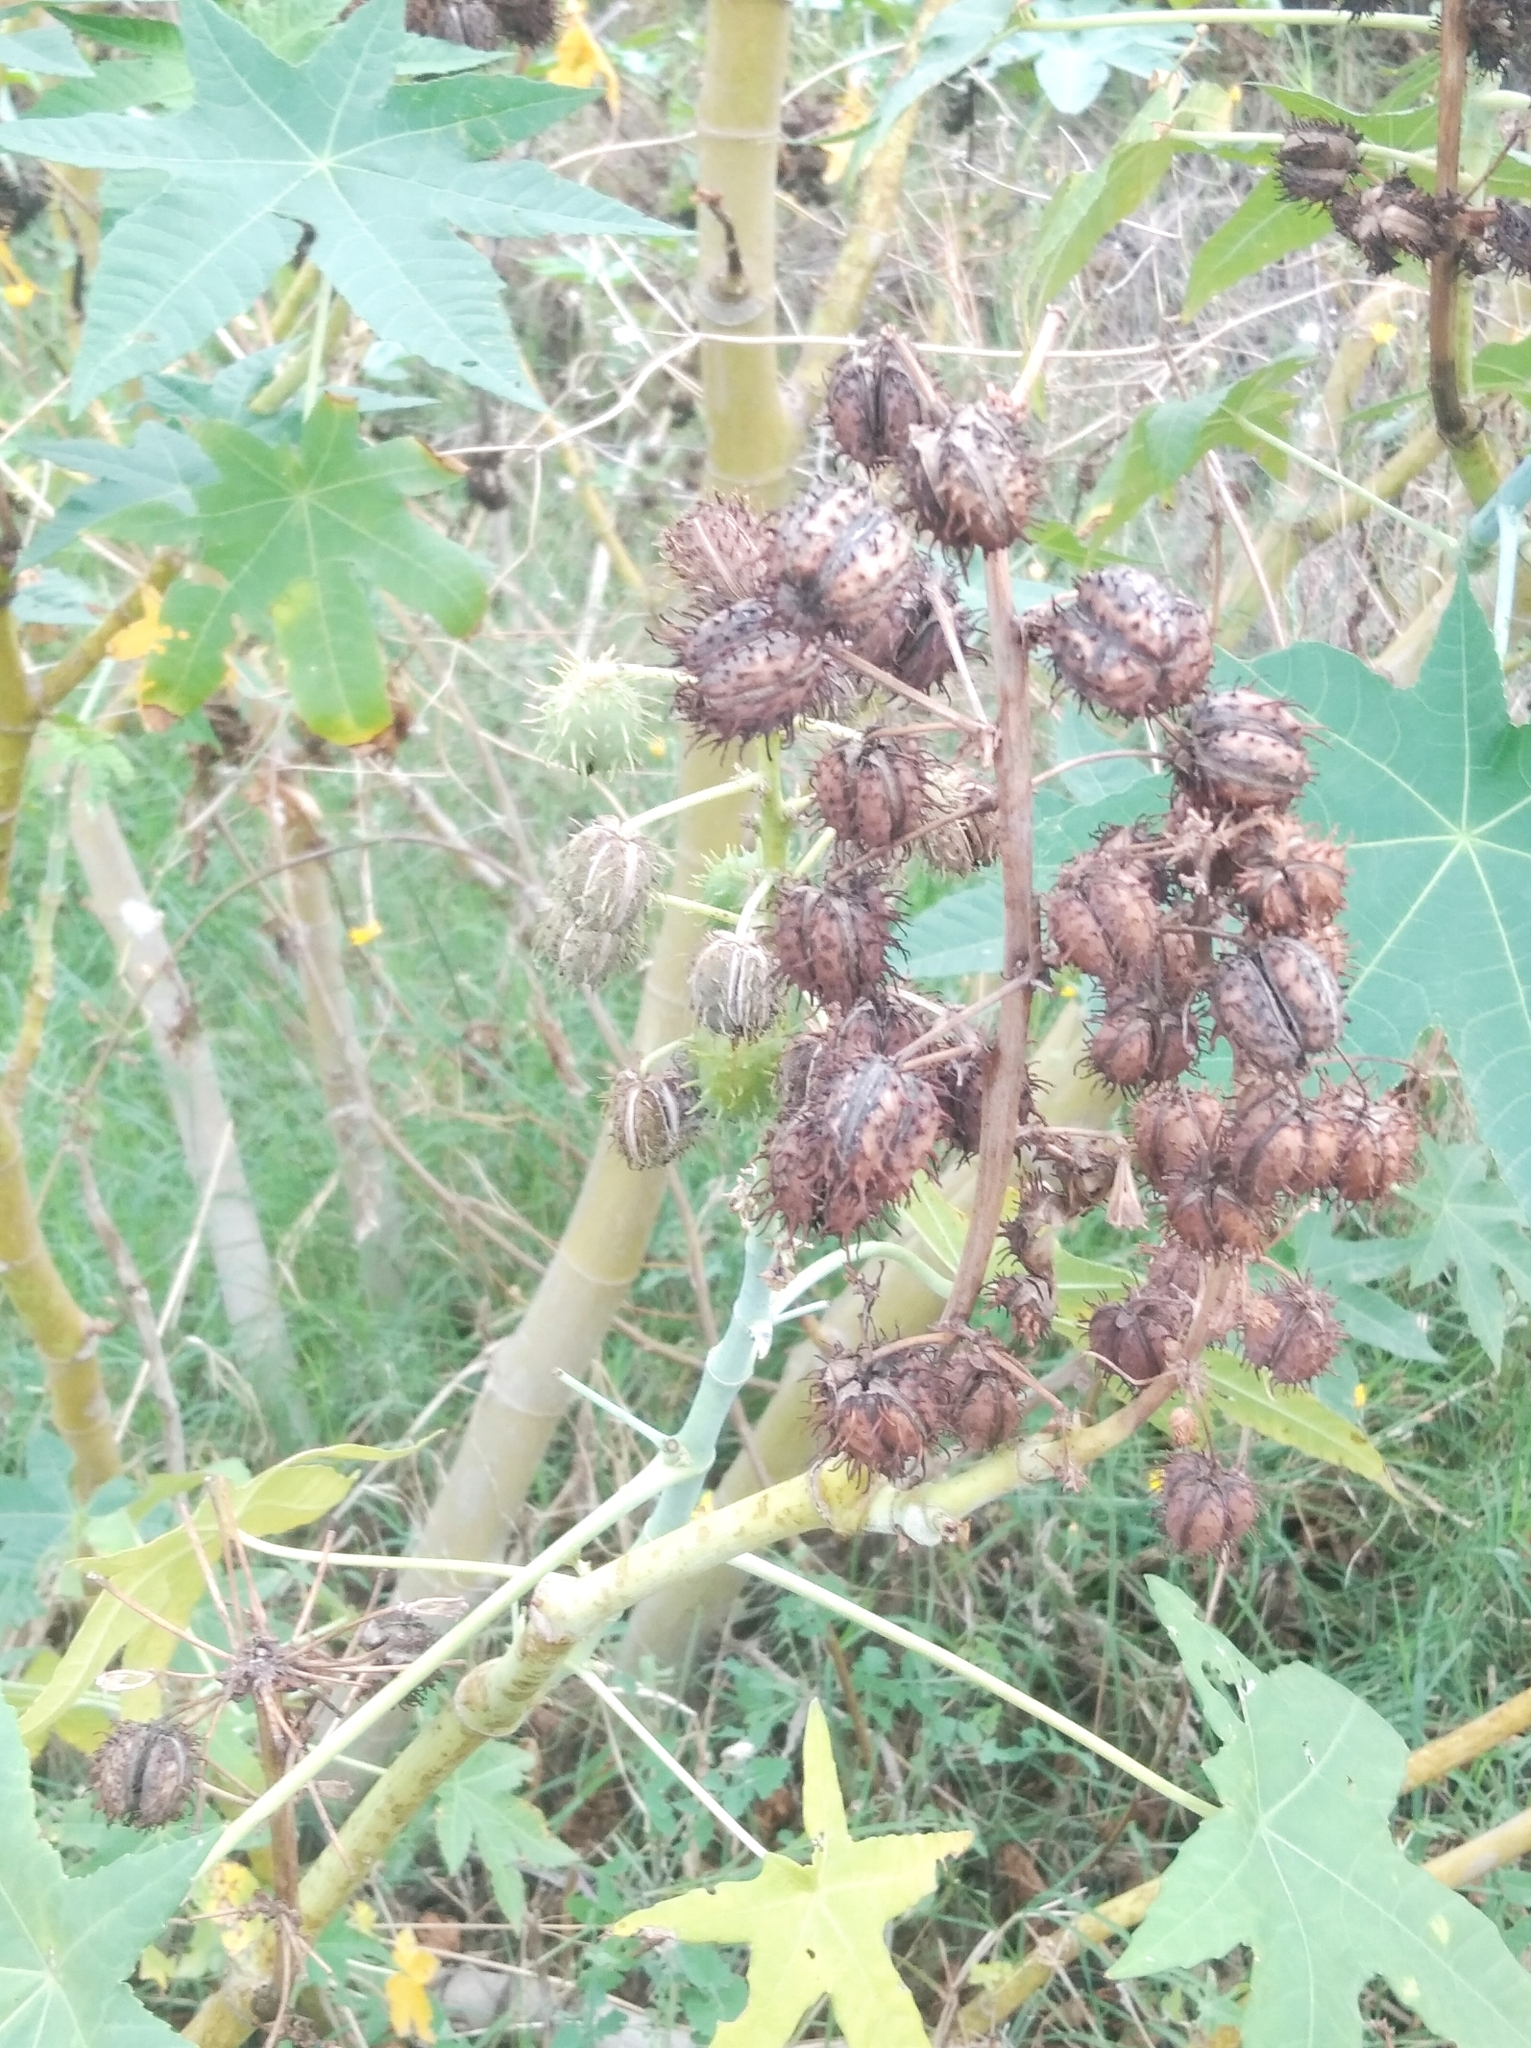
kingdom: Plantae
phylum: Tracheophyta
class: Magnoliopsida
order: Malpighiales
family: Euphorbiaceae
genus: Ricinus
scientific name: Ricinus communis
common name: Castor-oil-plant
